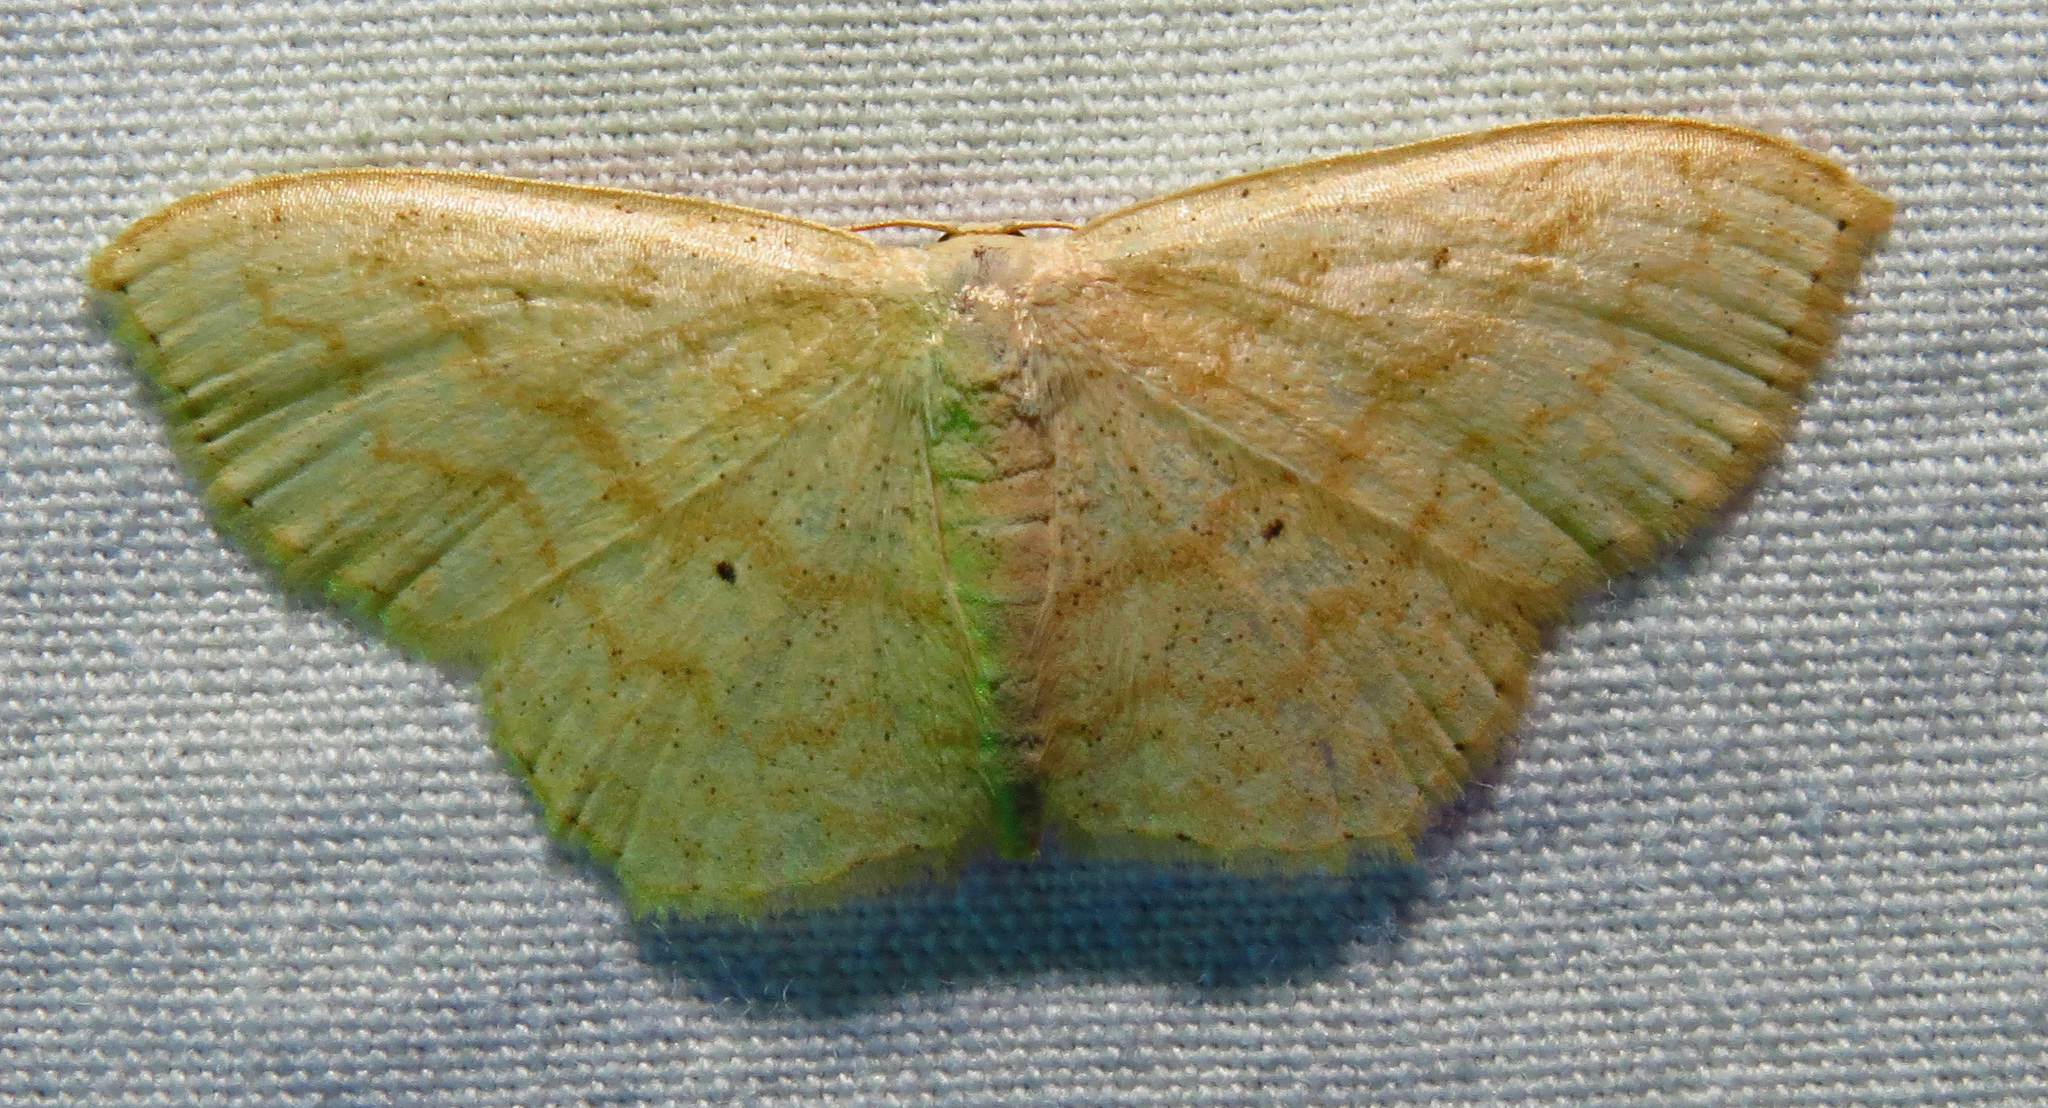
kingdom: Animalia
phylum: Arthropoda
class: Insecta
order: Lepidoptera
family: Geometridae
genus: Scopula
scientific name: Scopula limboundata
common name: Large lace border
